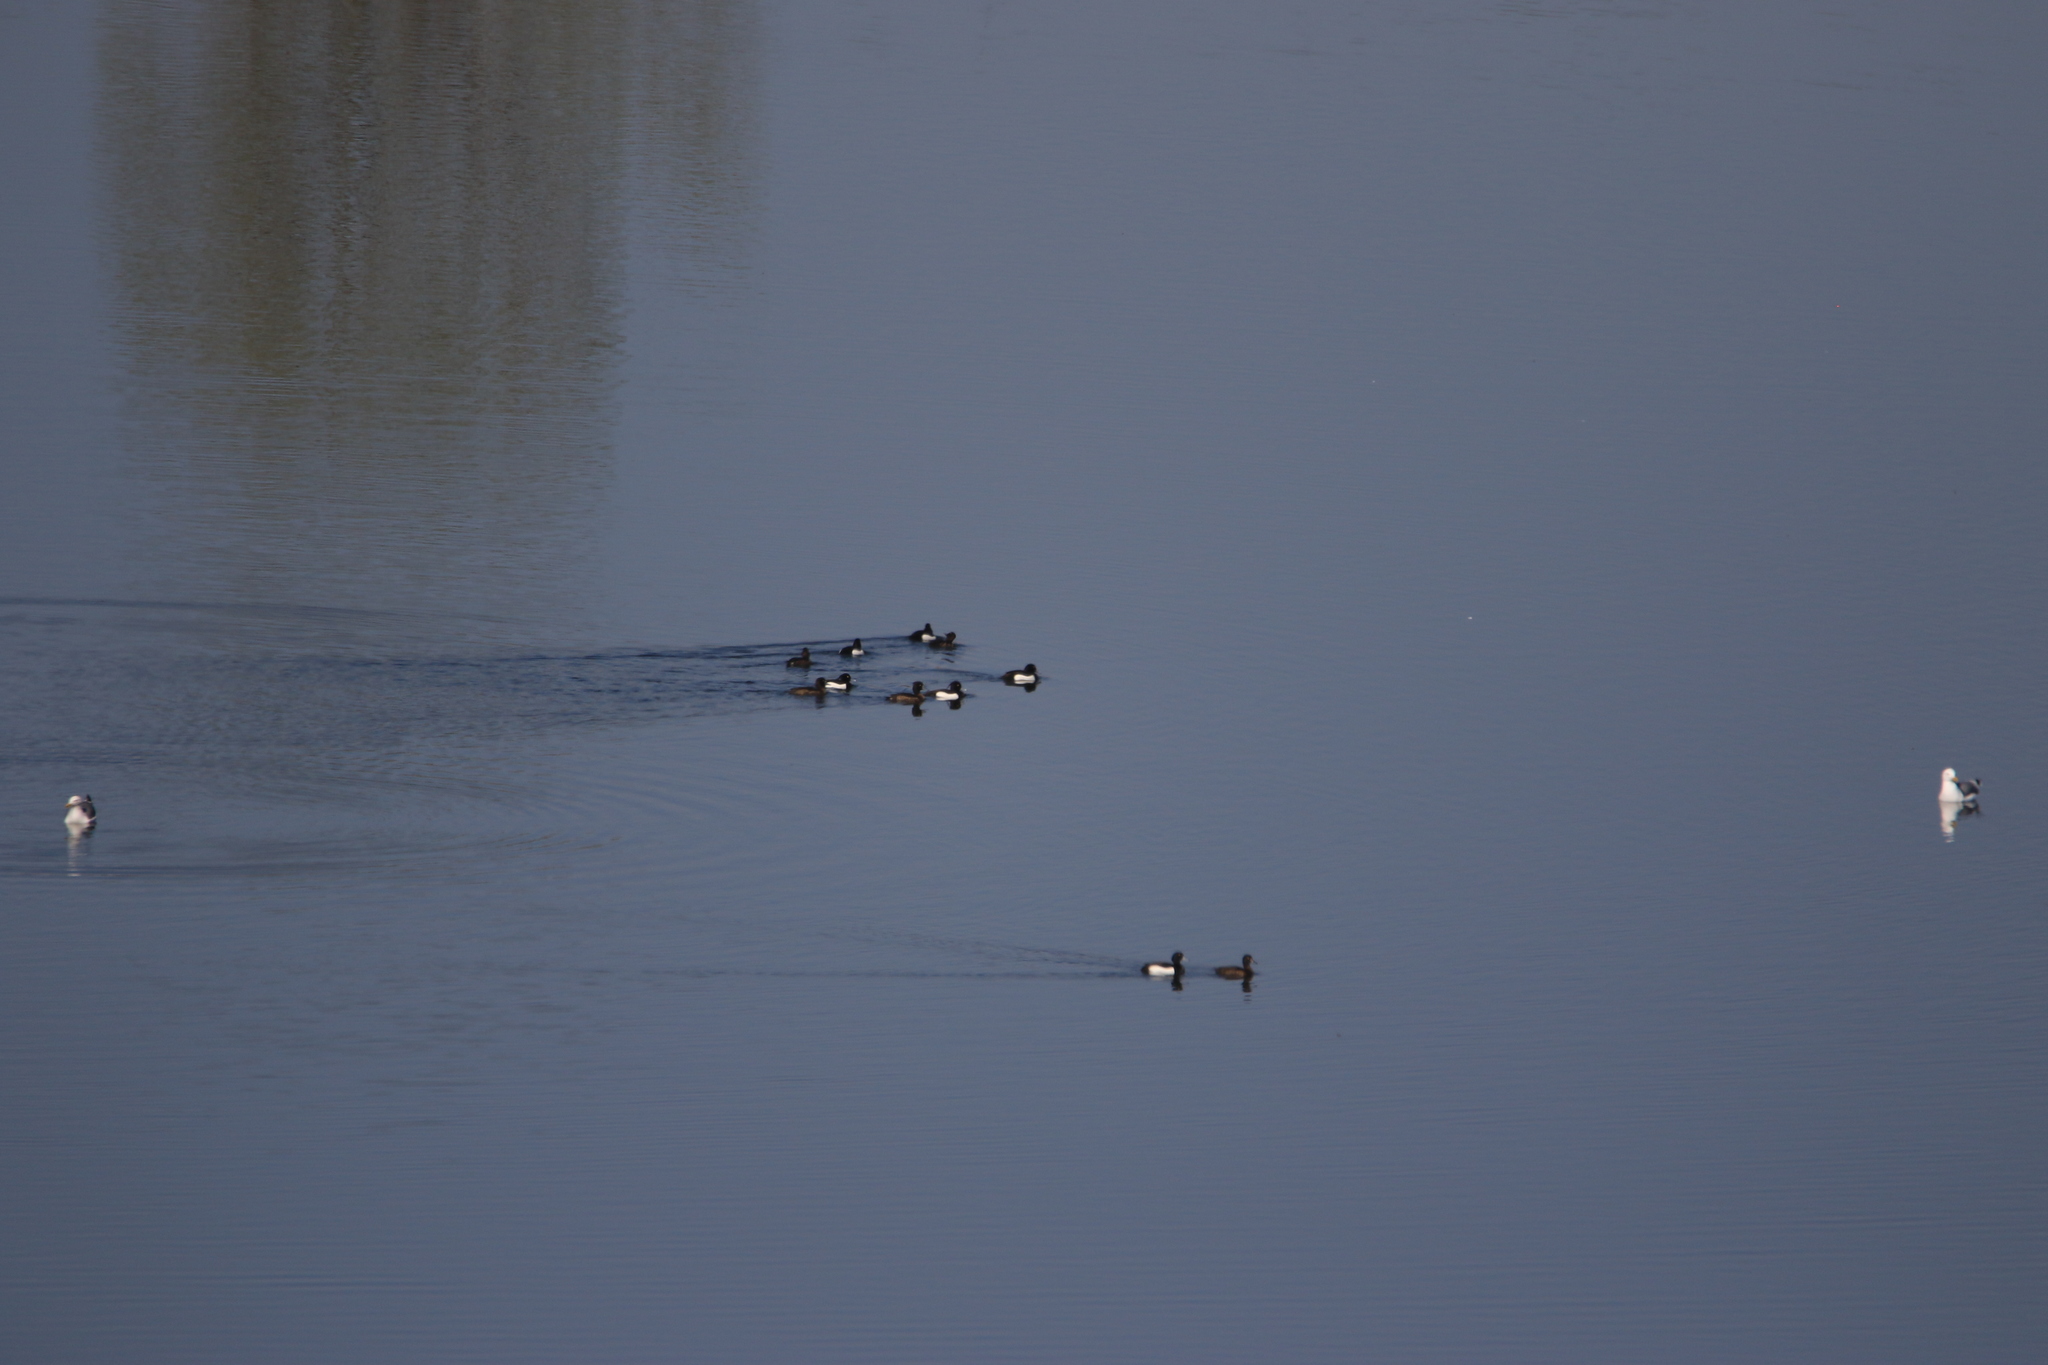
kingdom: Animalia
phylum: Chordata
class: Aves
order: Anseriformes
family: Anatidae
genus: Aythya
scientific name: Aythya fuligula
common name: Tufted duck
